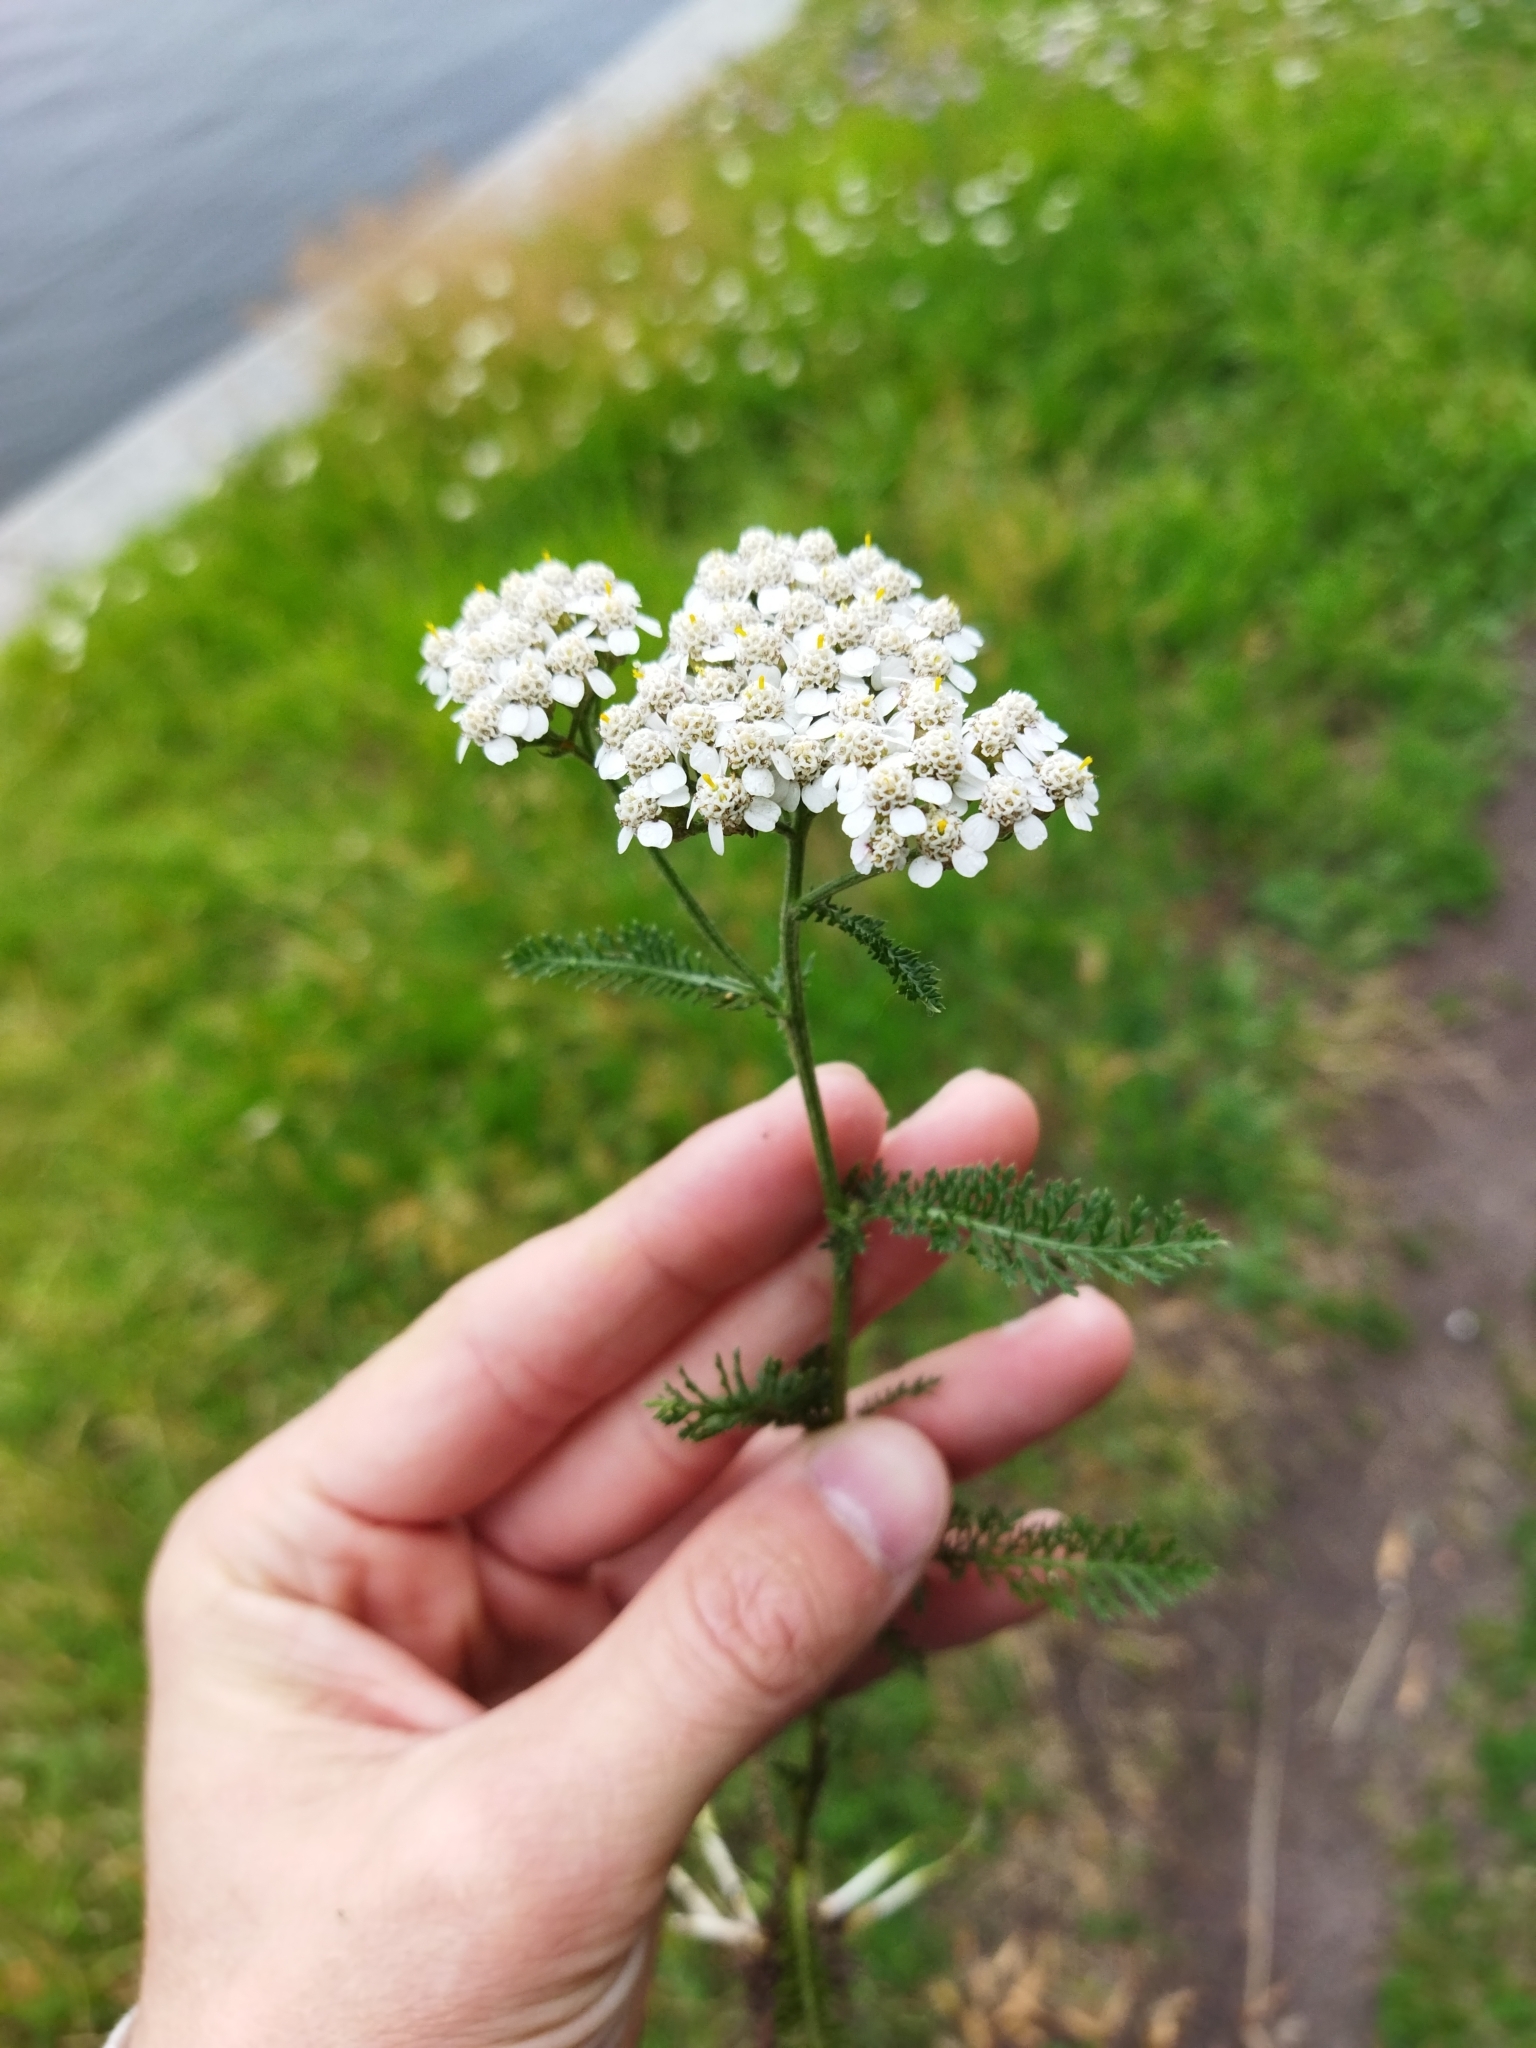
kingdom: Plantae
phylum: Tracheophyta
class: Magnoliopsida
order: Asterales
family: Asteraceae
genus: Achillea
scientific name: Achillea millefolium
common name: Yarrow
